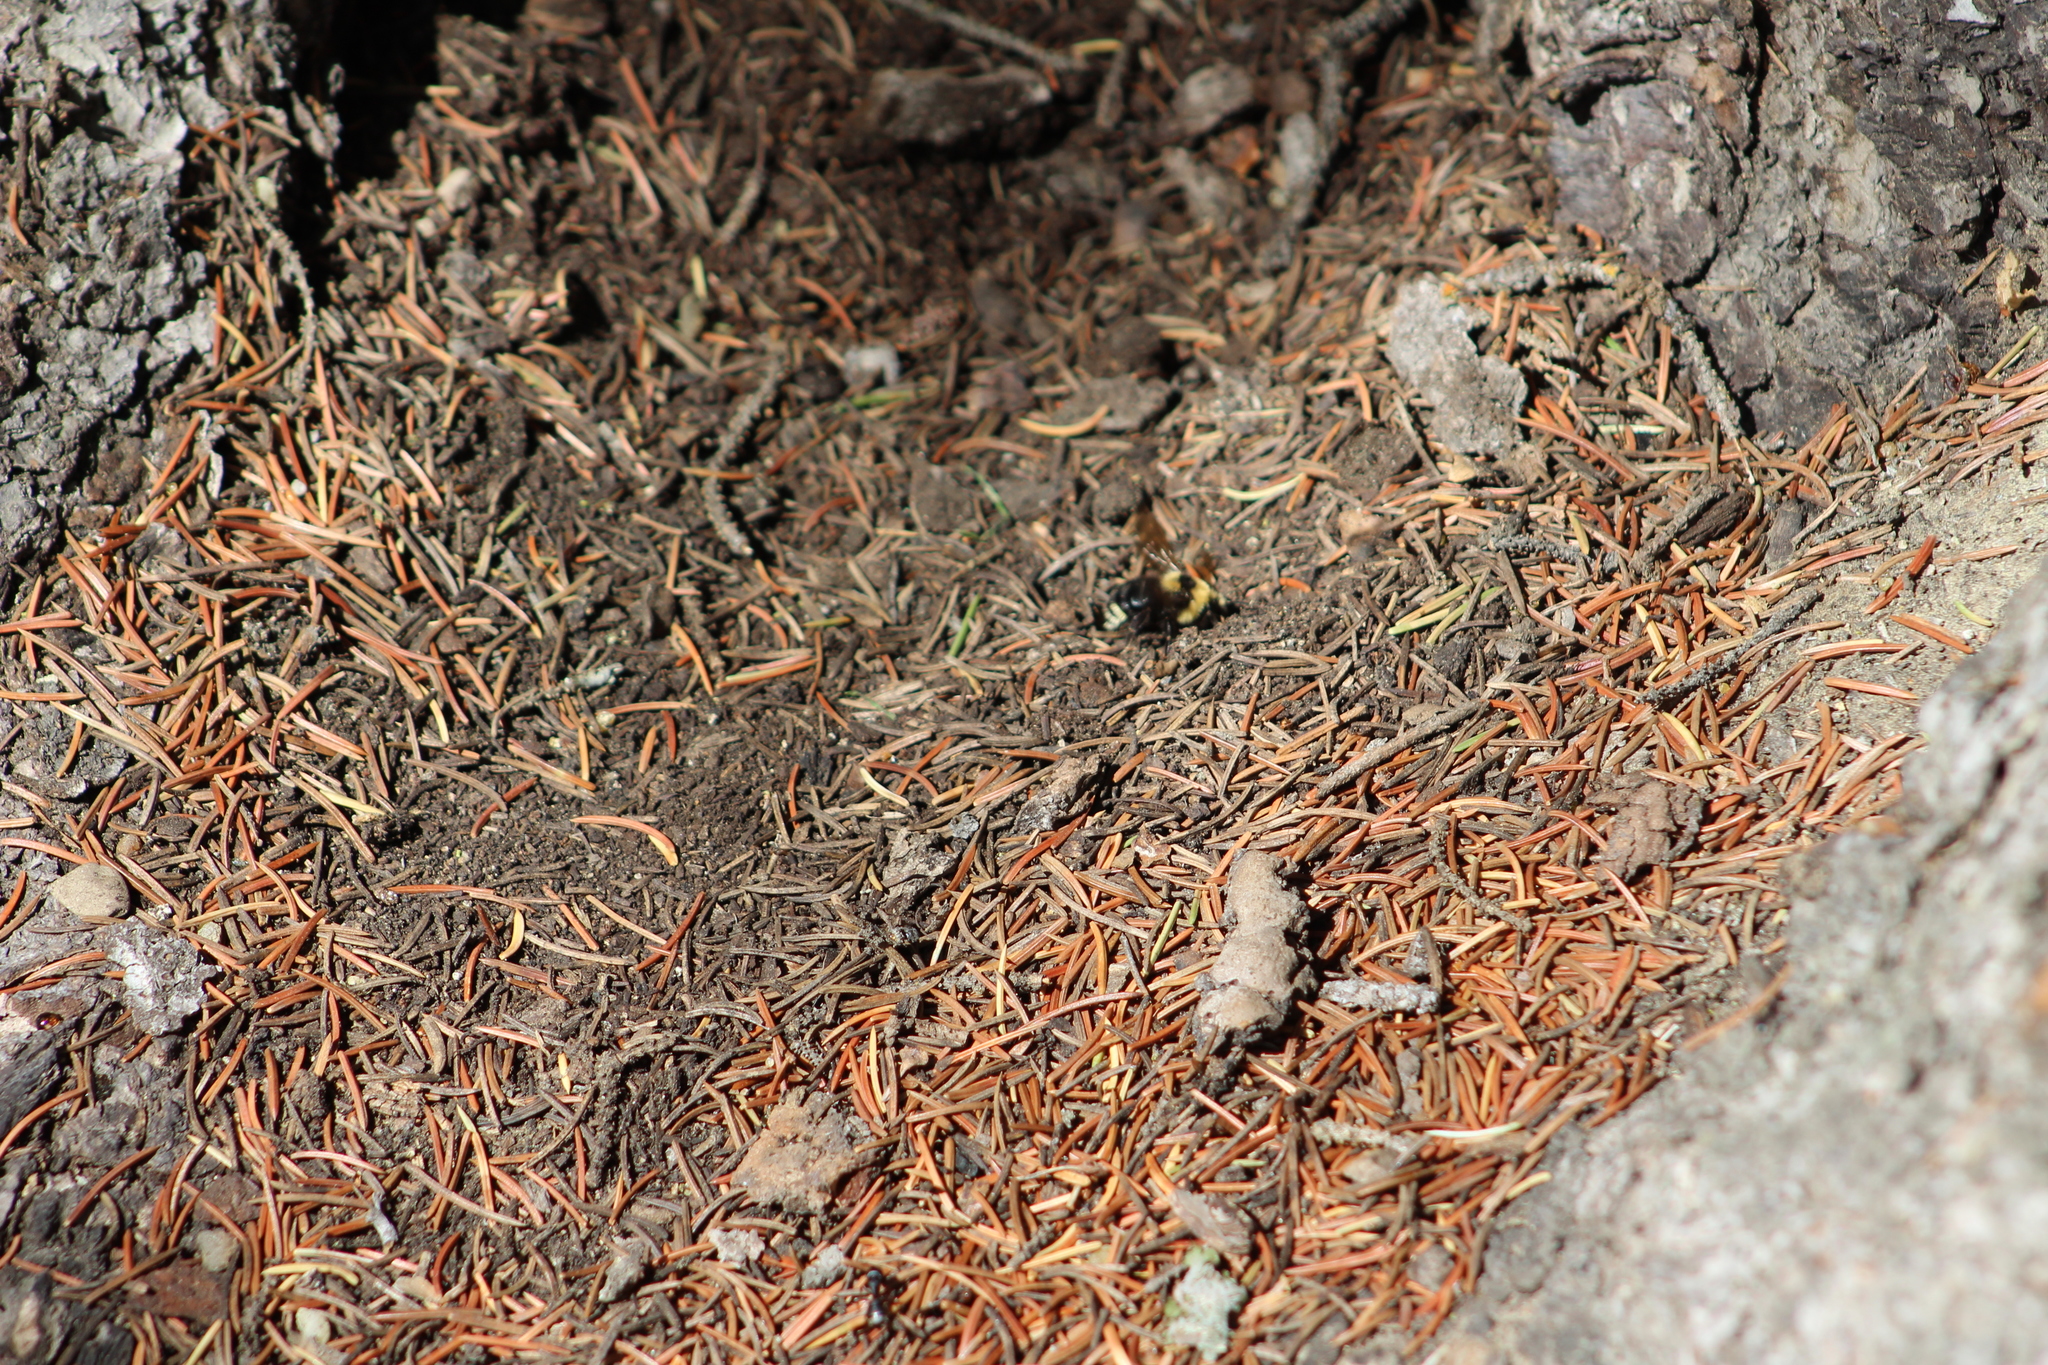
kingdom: Animalia
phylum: Arthropoda
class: Insecta
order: Hymenoptera
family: Apidae
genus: Bombus
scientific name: Bombus insularis
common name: Indiscriminate cuckoo bumble bee
